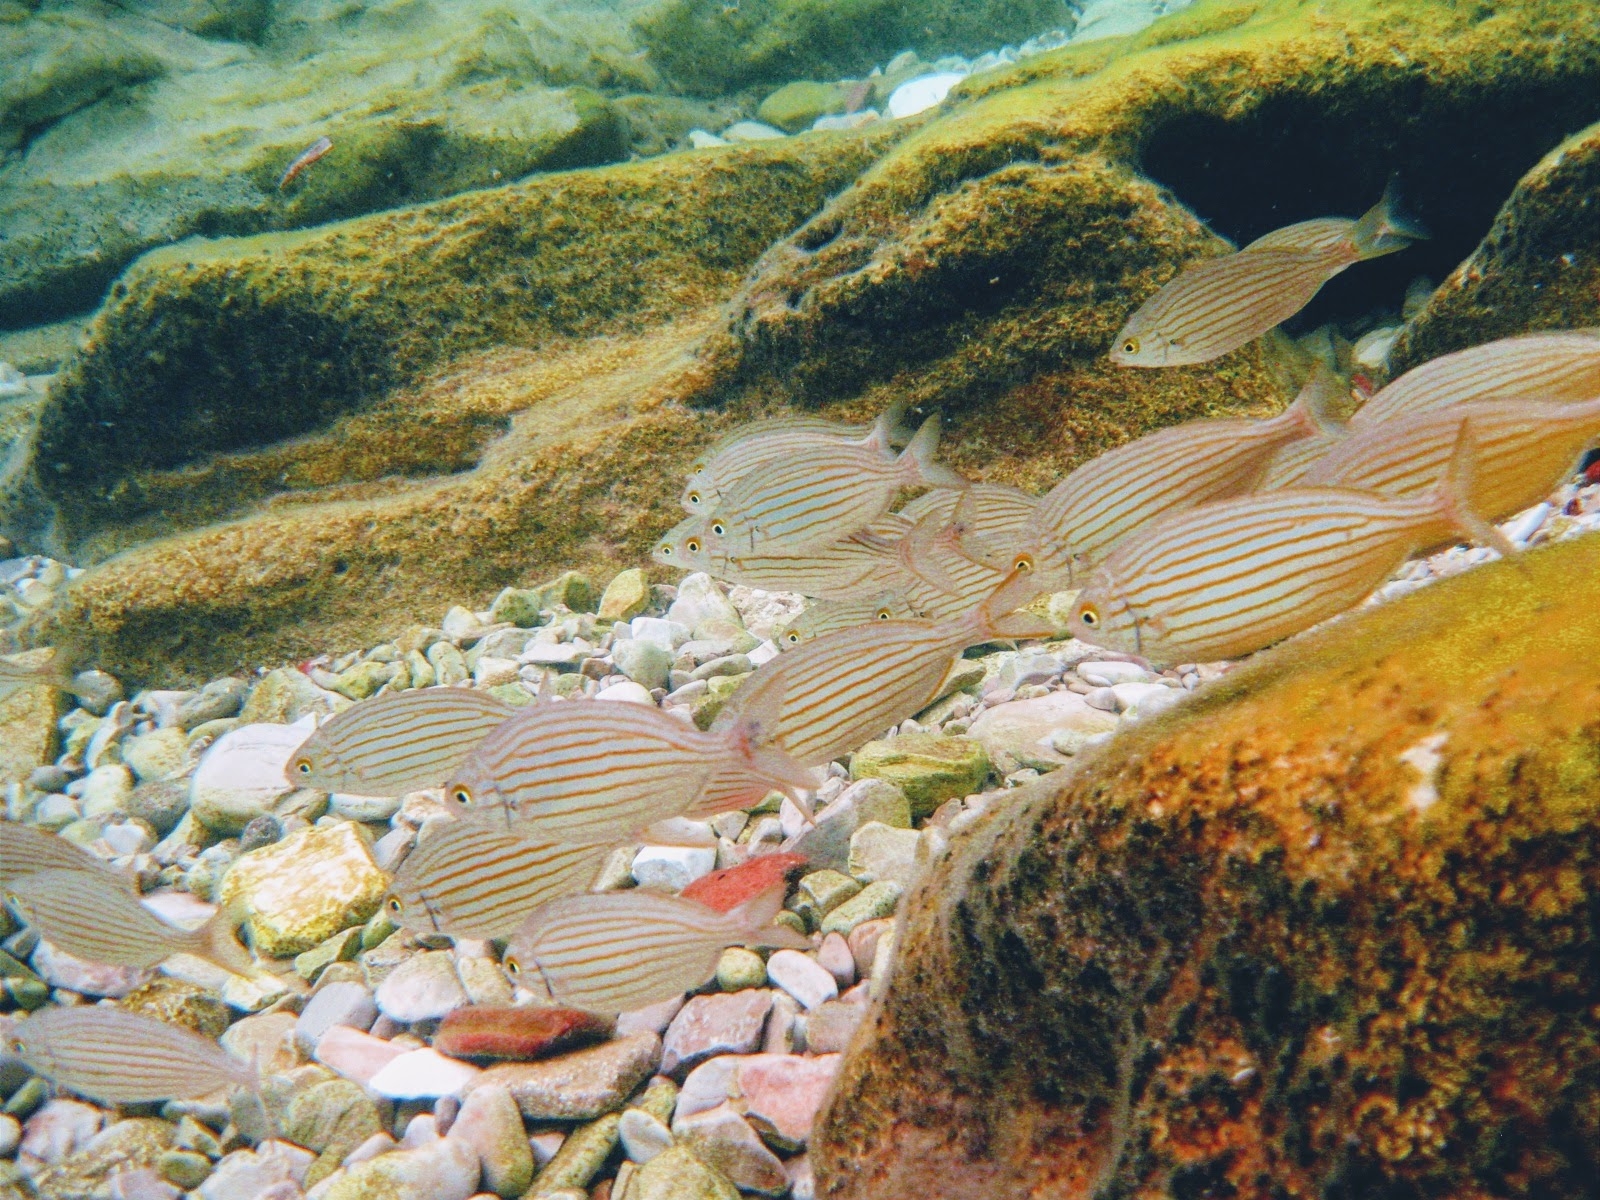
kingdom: Animalia
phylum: Chordata
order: Perciformes
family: Sparidae
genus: Sarpa
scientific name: Sarpa salpa
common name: Salema
